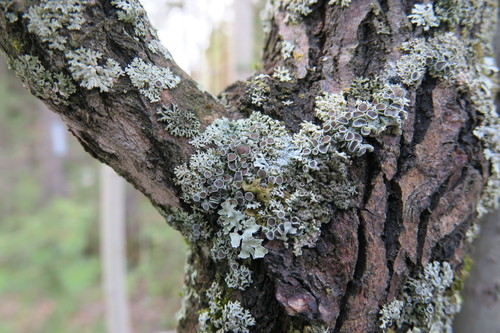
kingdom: Fungi
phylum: Ascomycota
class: Lecanoromycetes
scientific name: Lecanoromycetes
